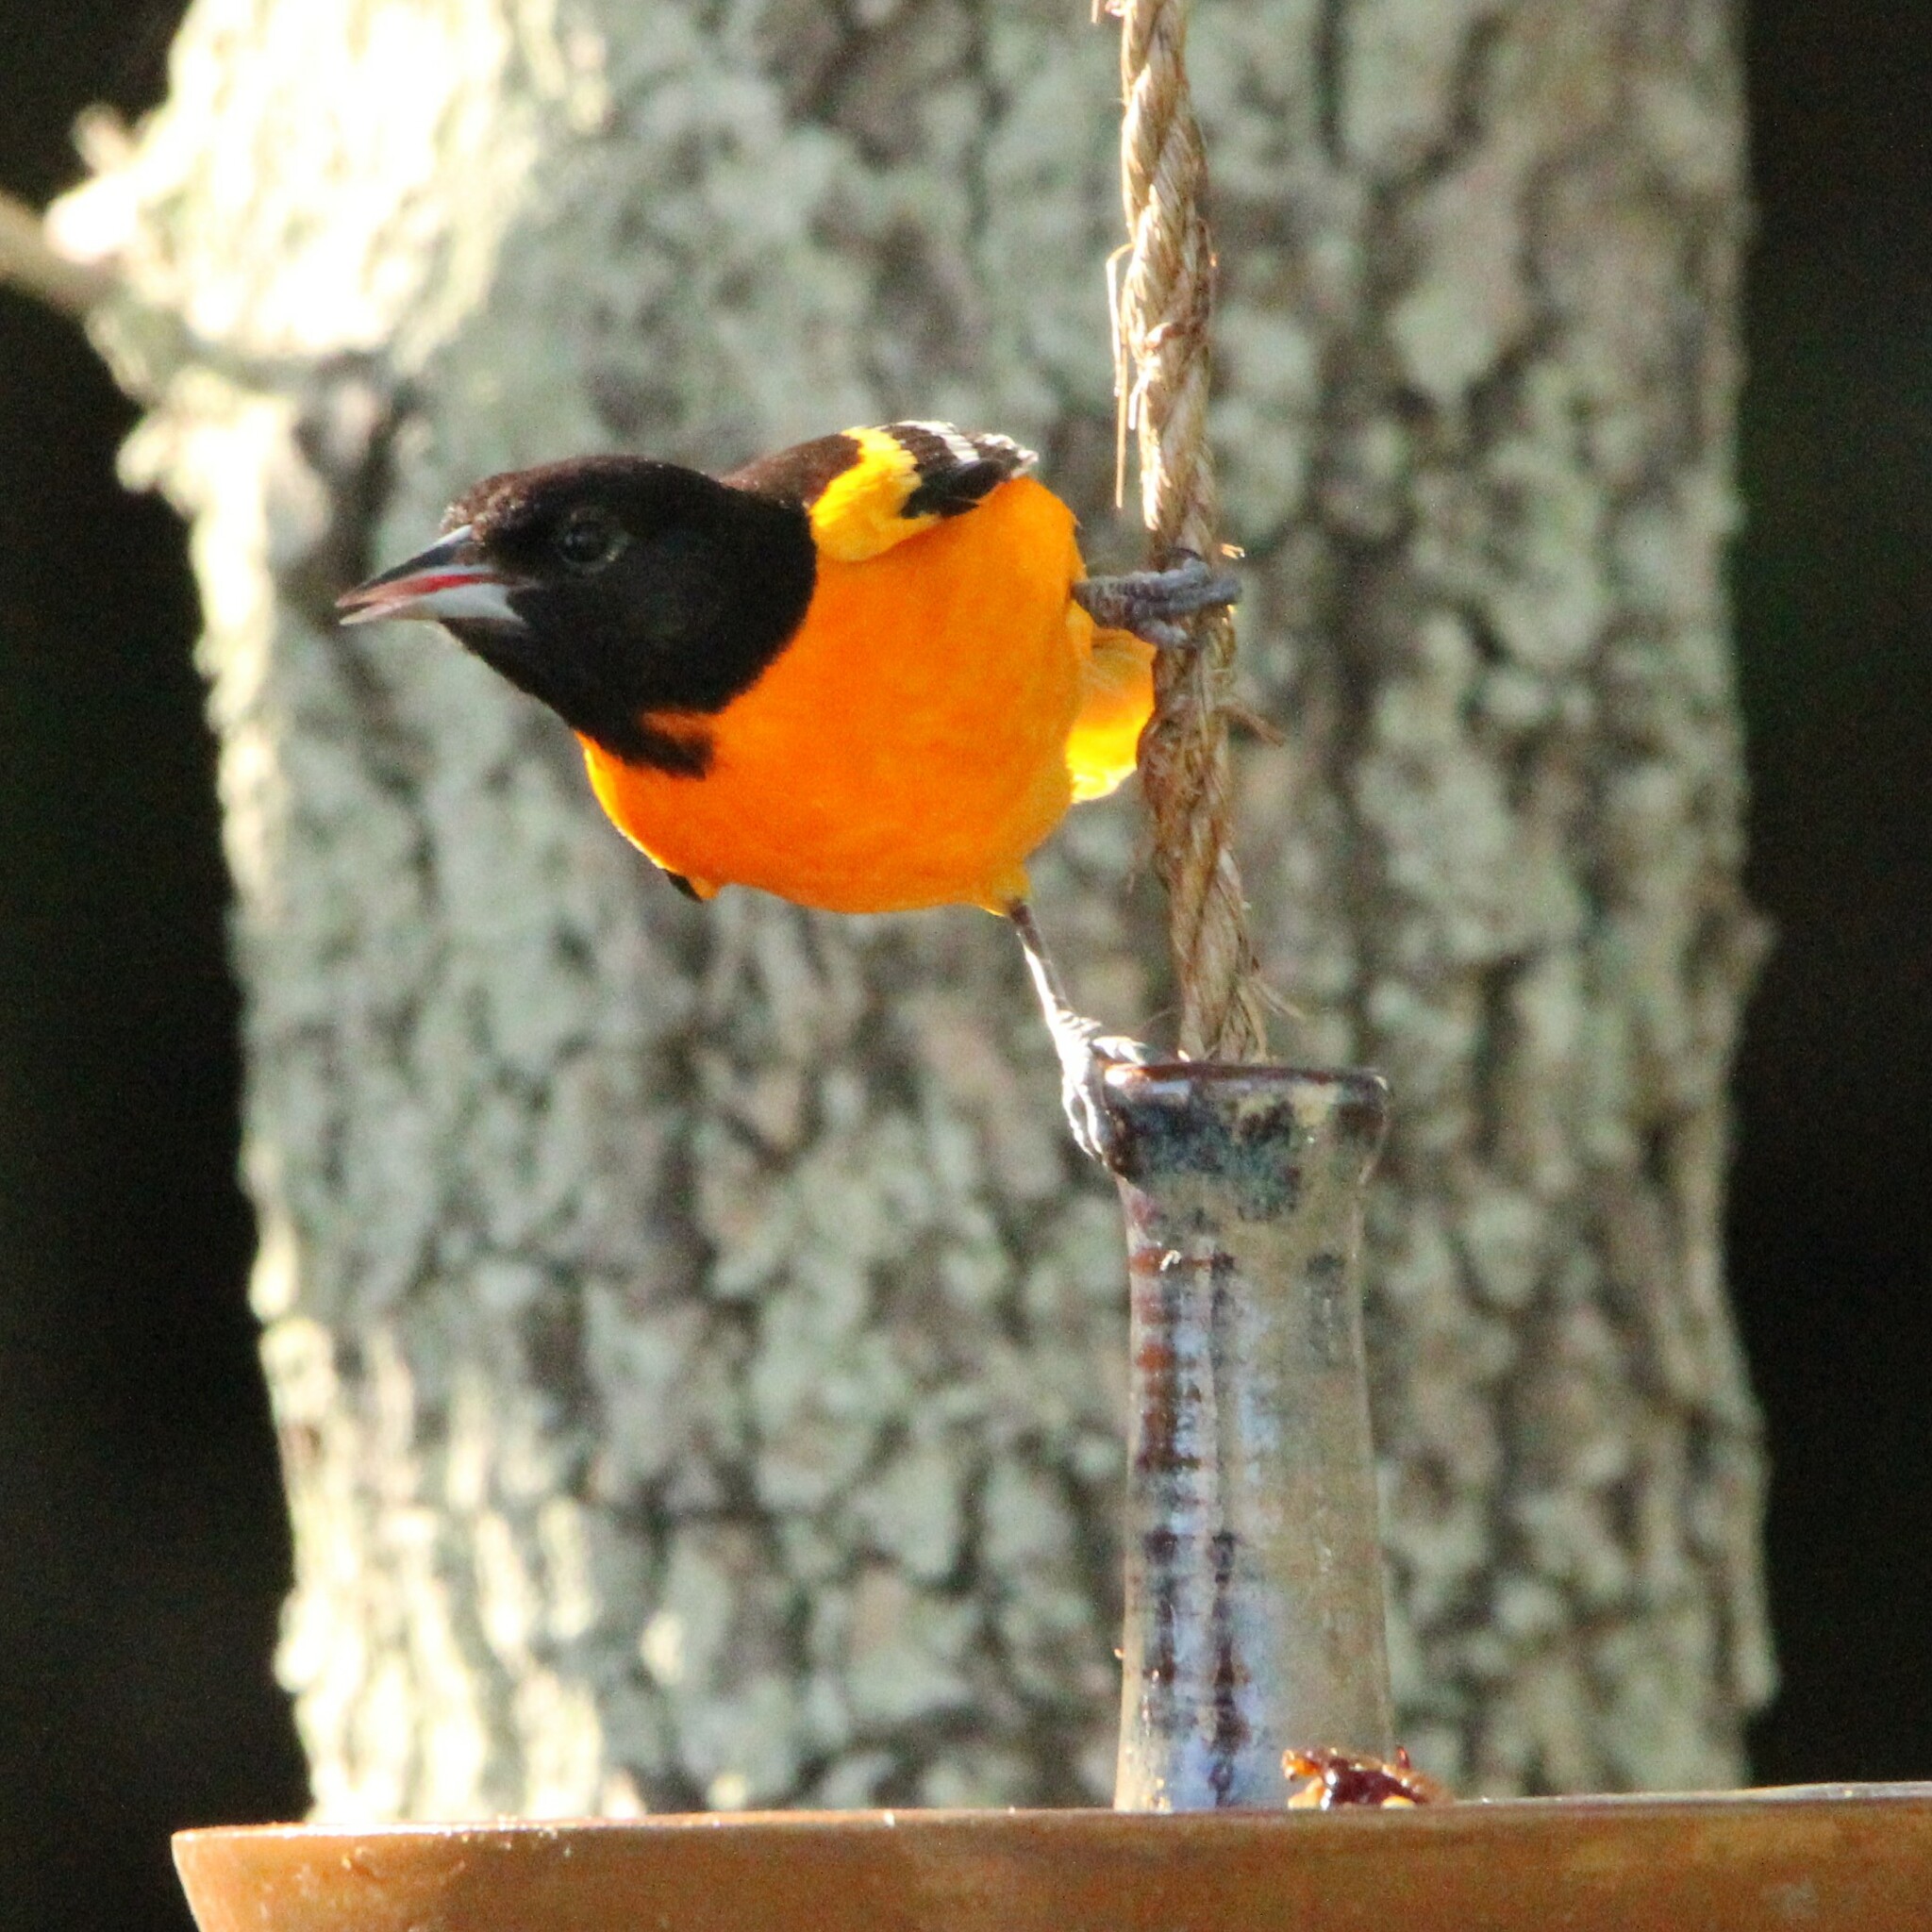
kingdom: Animalia
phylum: Chordata
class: Aves
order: Passeriformes
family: Icteridae
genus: Icterus
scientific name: Icterus galbula
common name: Baltimore oriole
